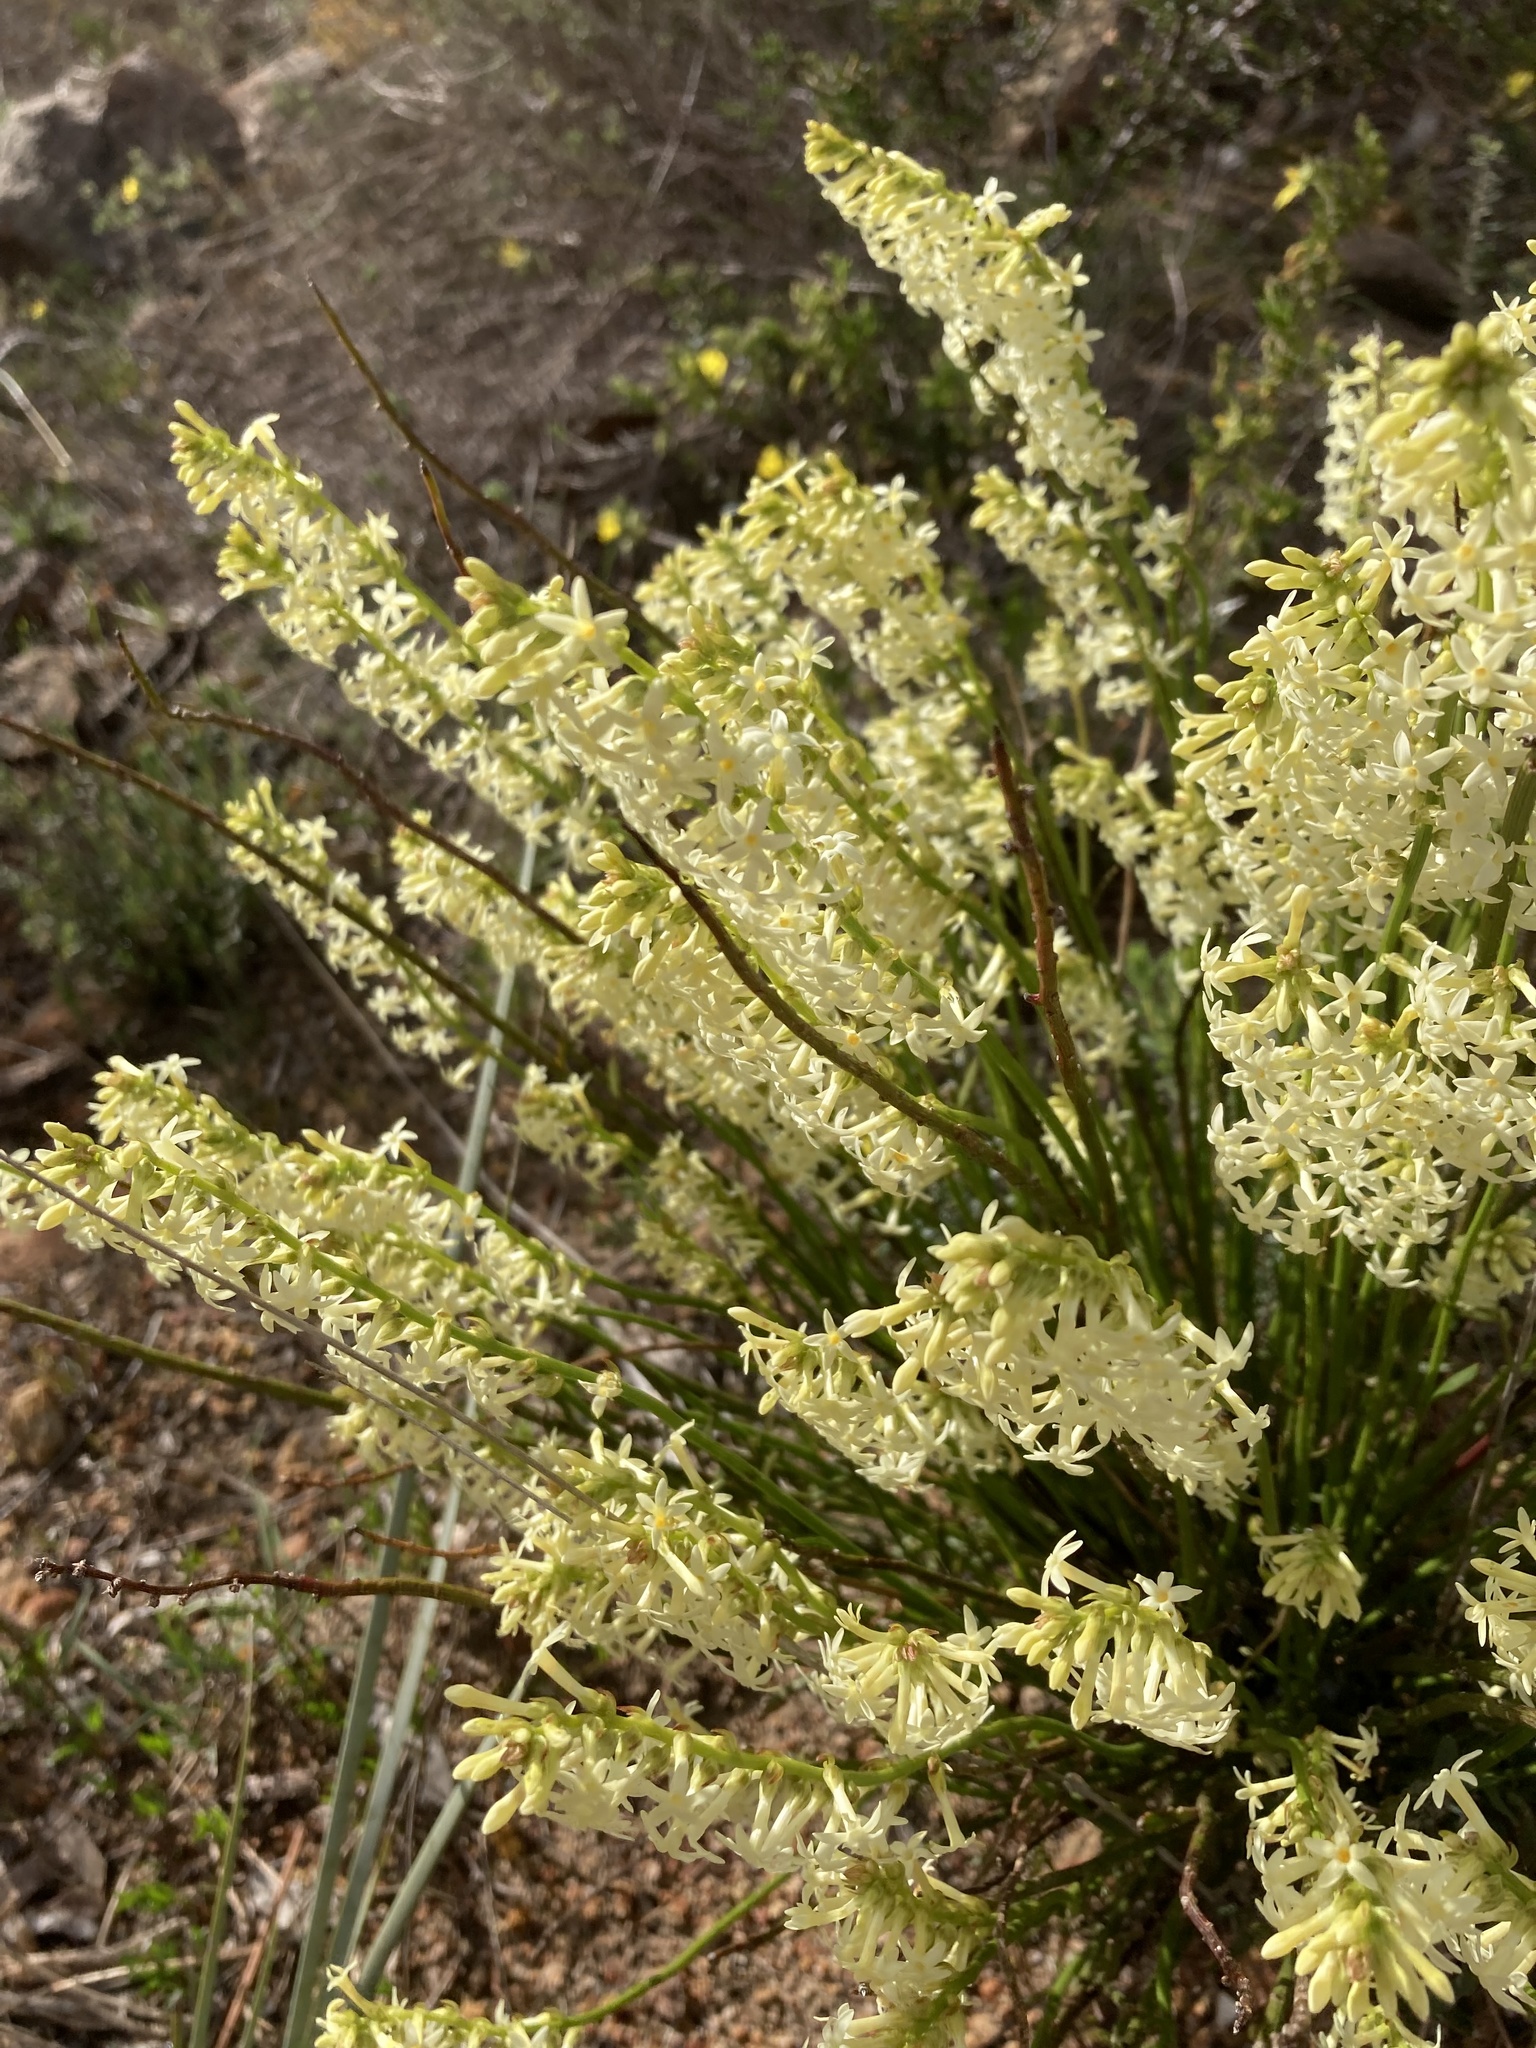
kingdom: Plantae
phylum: Tracheophyta
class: Magnoliopsida
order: Celastrales
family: Celastraceae
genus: Stackhousia
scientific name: Stackhousia monogyna
